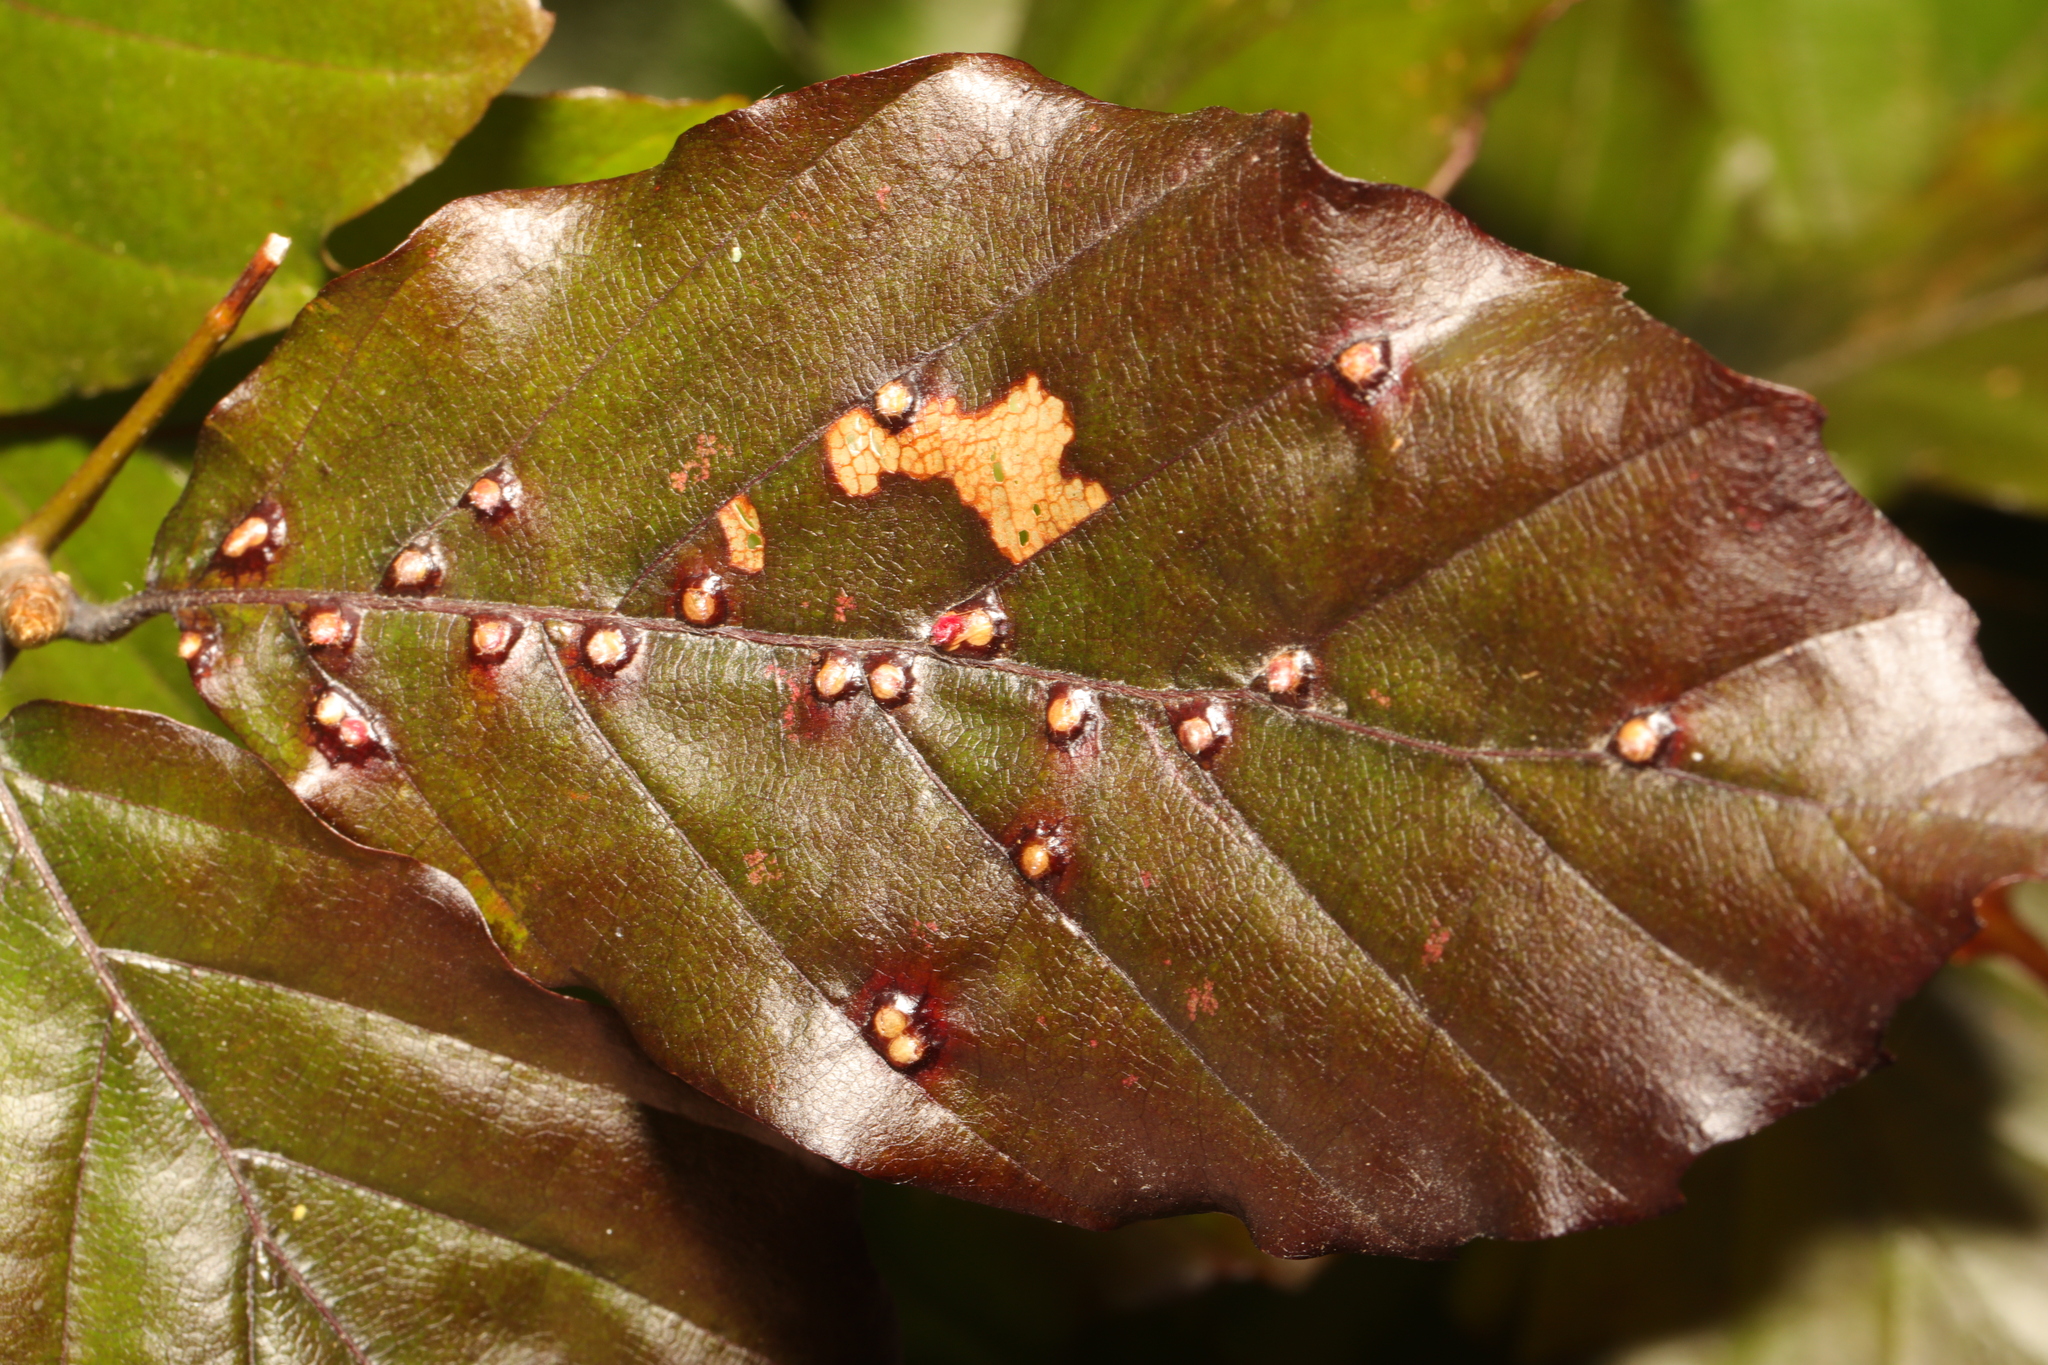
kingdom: Animalia
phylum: Arthropoda
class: Insecta
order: Diptera
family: Cecidomyiidae
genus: Hartigiola
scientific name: Hartigiola annulipes
